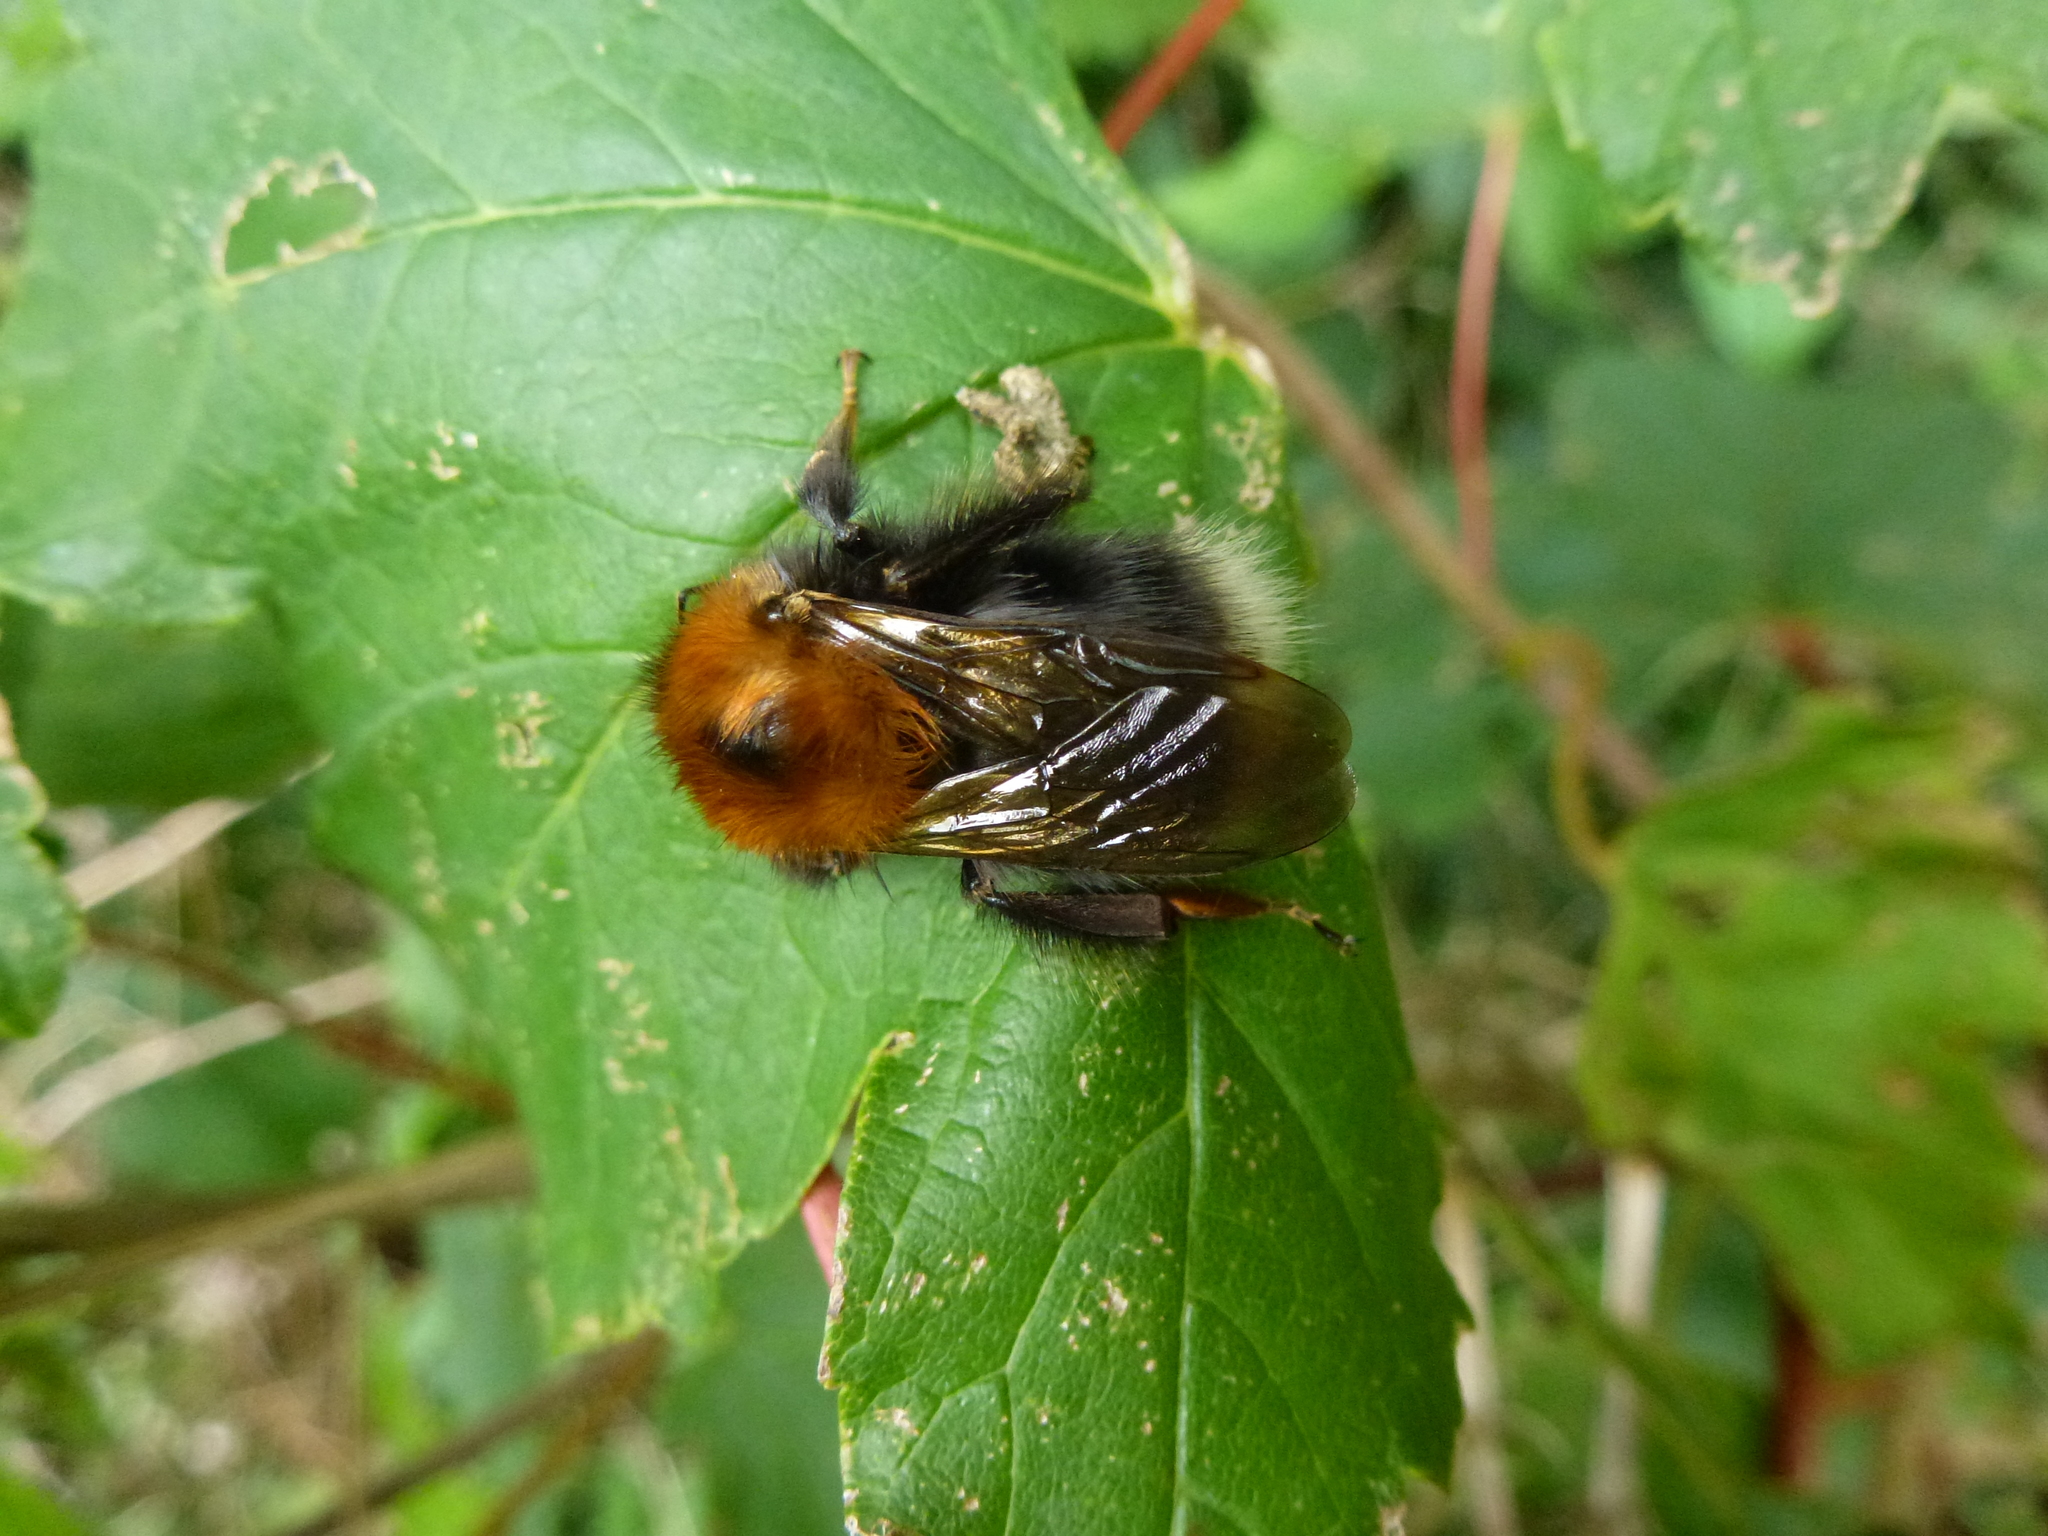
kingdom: Animalia
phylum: Arthropoda
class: Insecta
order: Hymenoptera
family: Apidae
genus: Bombus
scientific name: Bombus hypnorum
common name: New garden bumblebee
